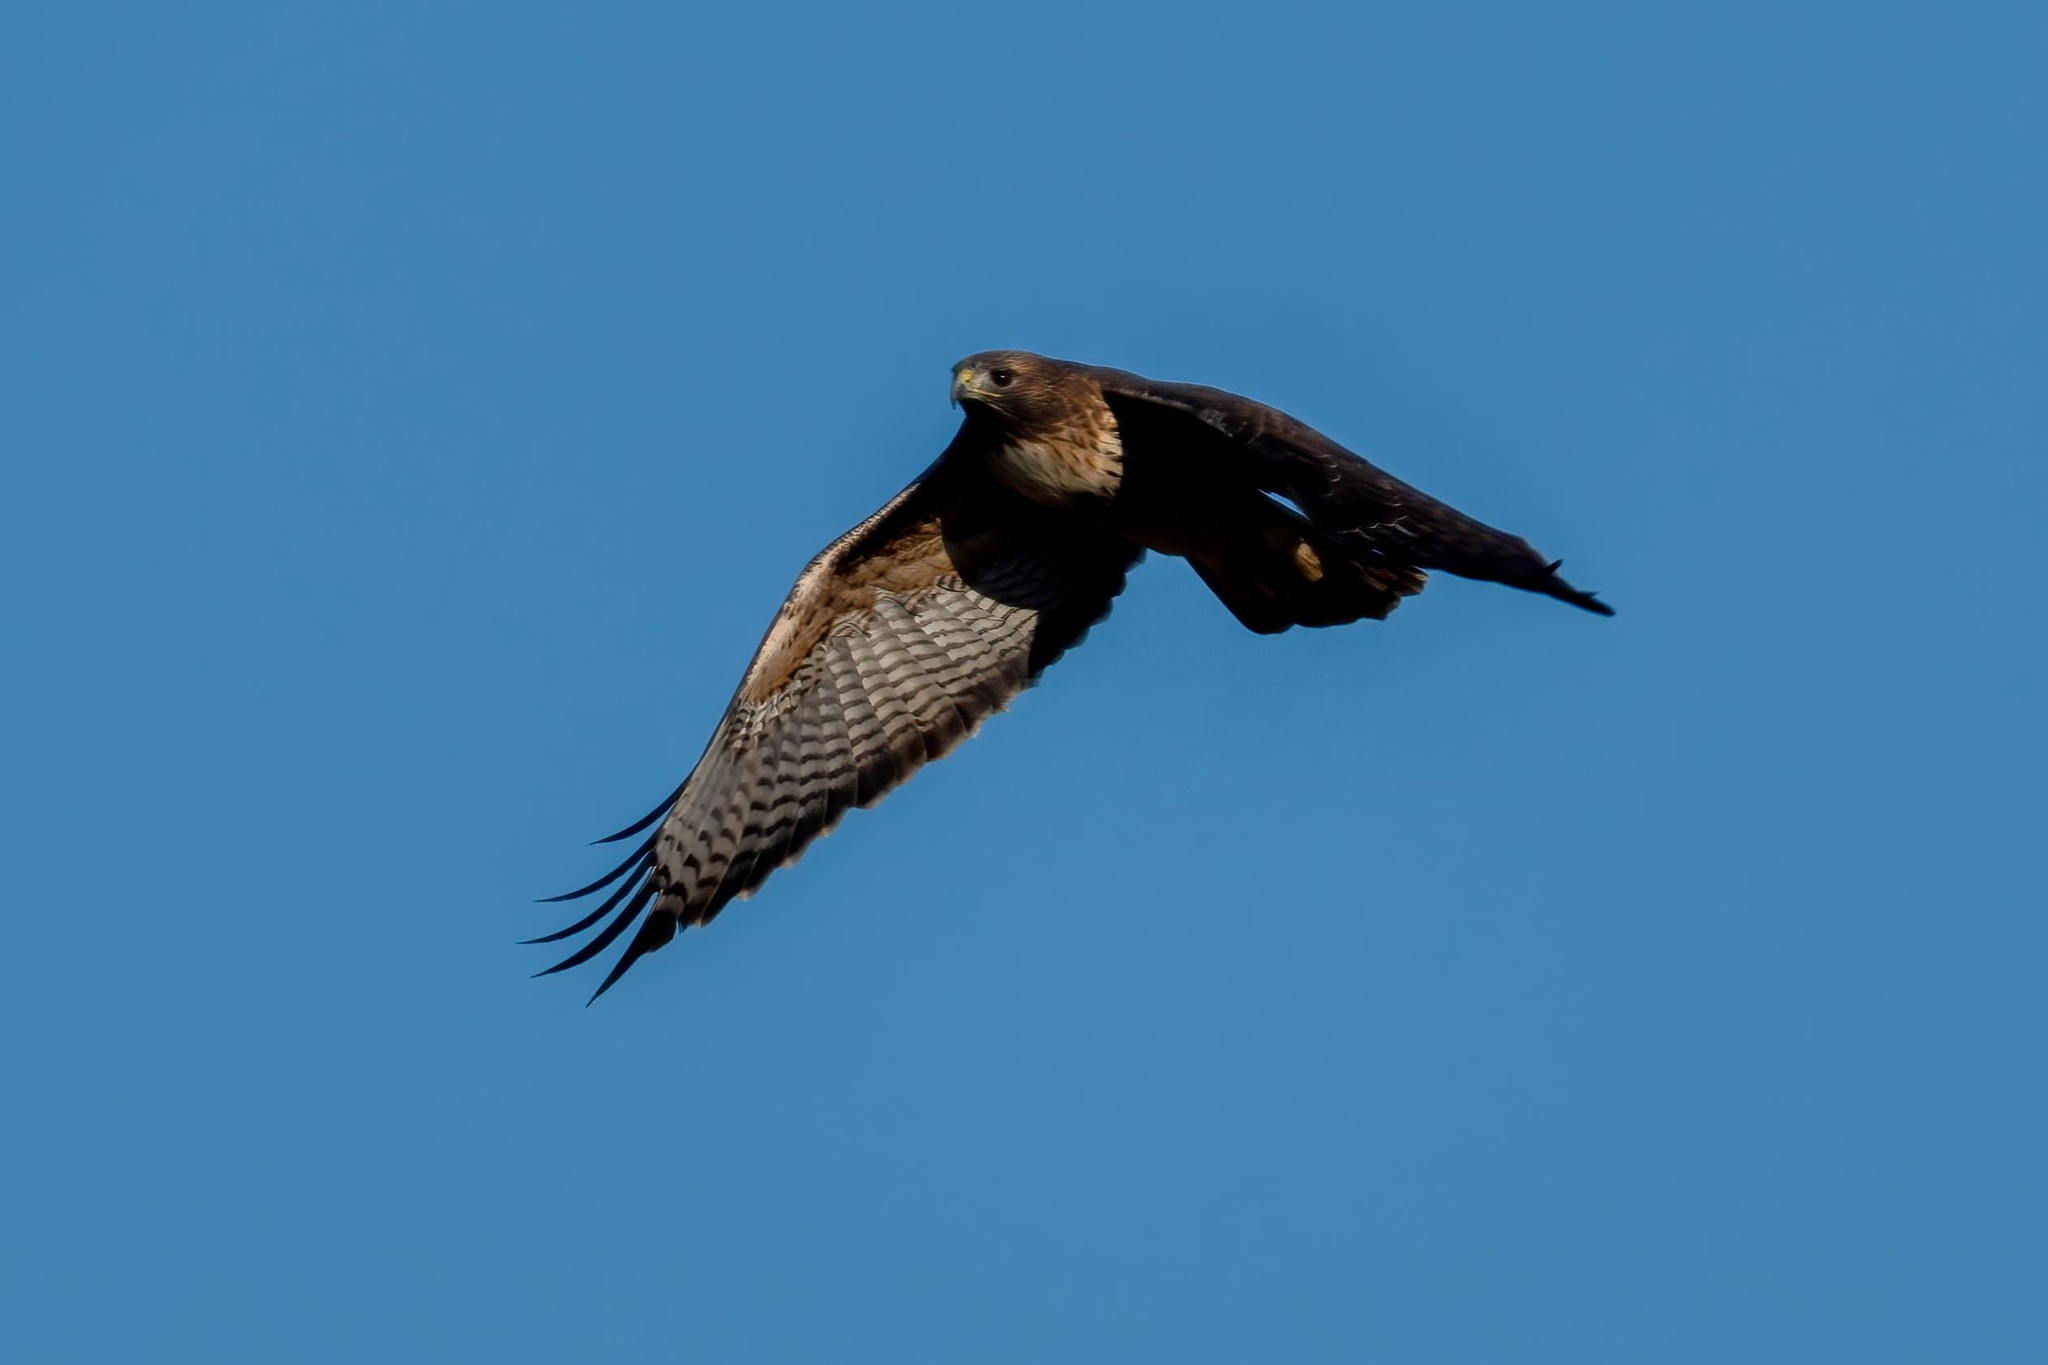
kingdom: Animalia
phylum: Chordata
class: Aves
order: Accipitriformes
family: Accipitridae
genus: Buteo
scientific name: Buteo jamaicensis
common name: Red-tailed hawk
